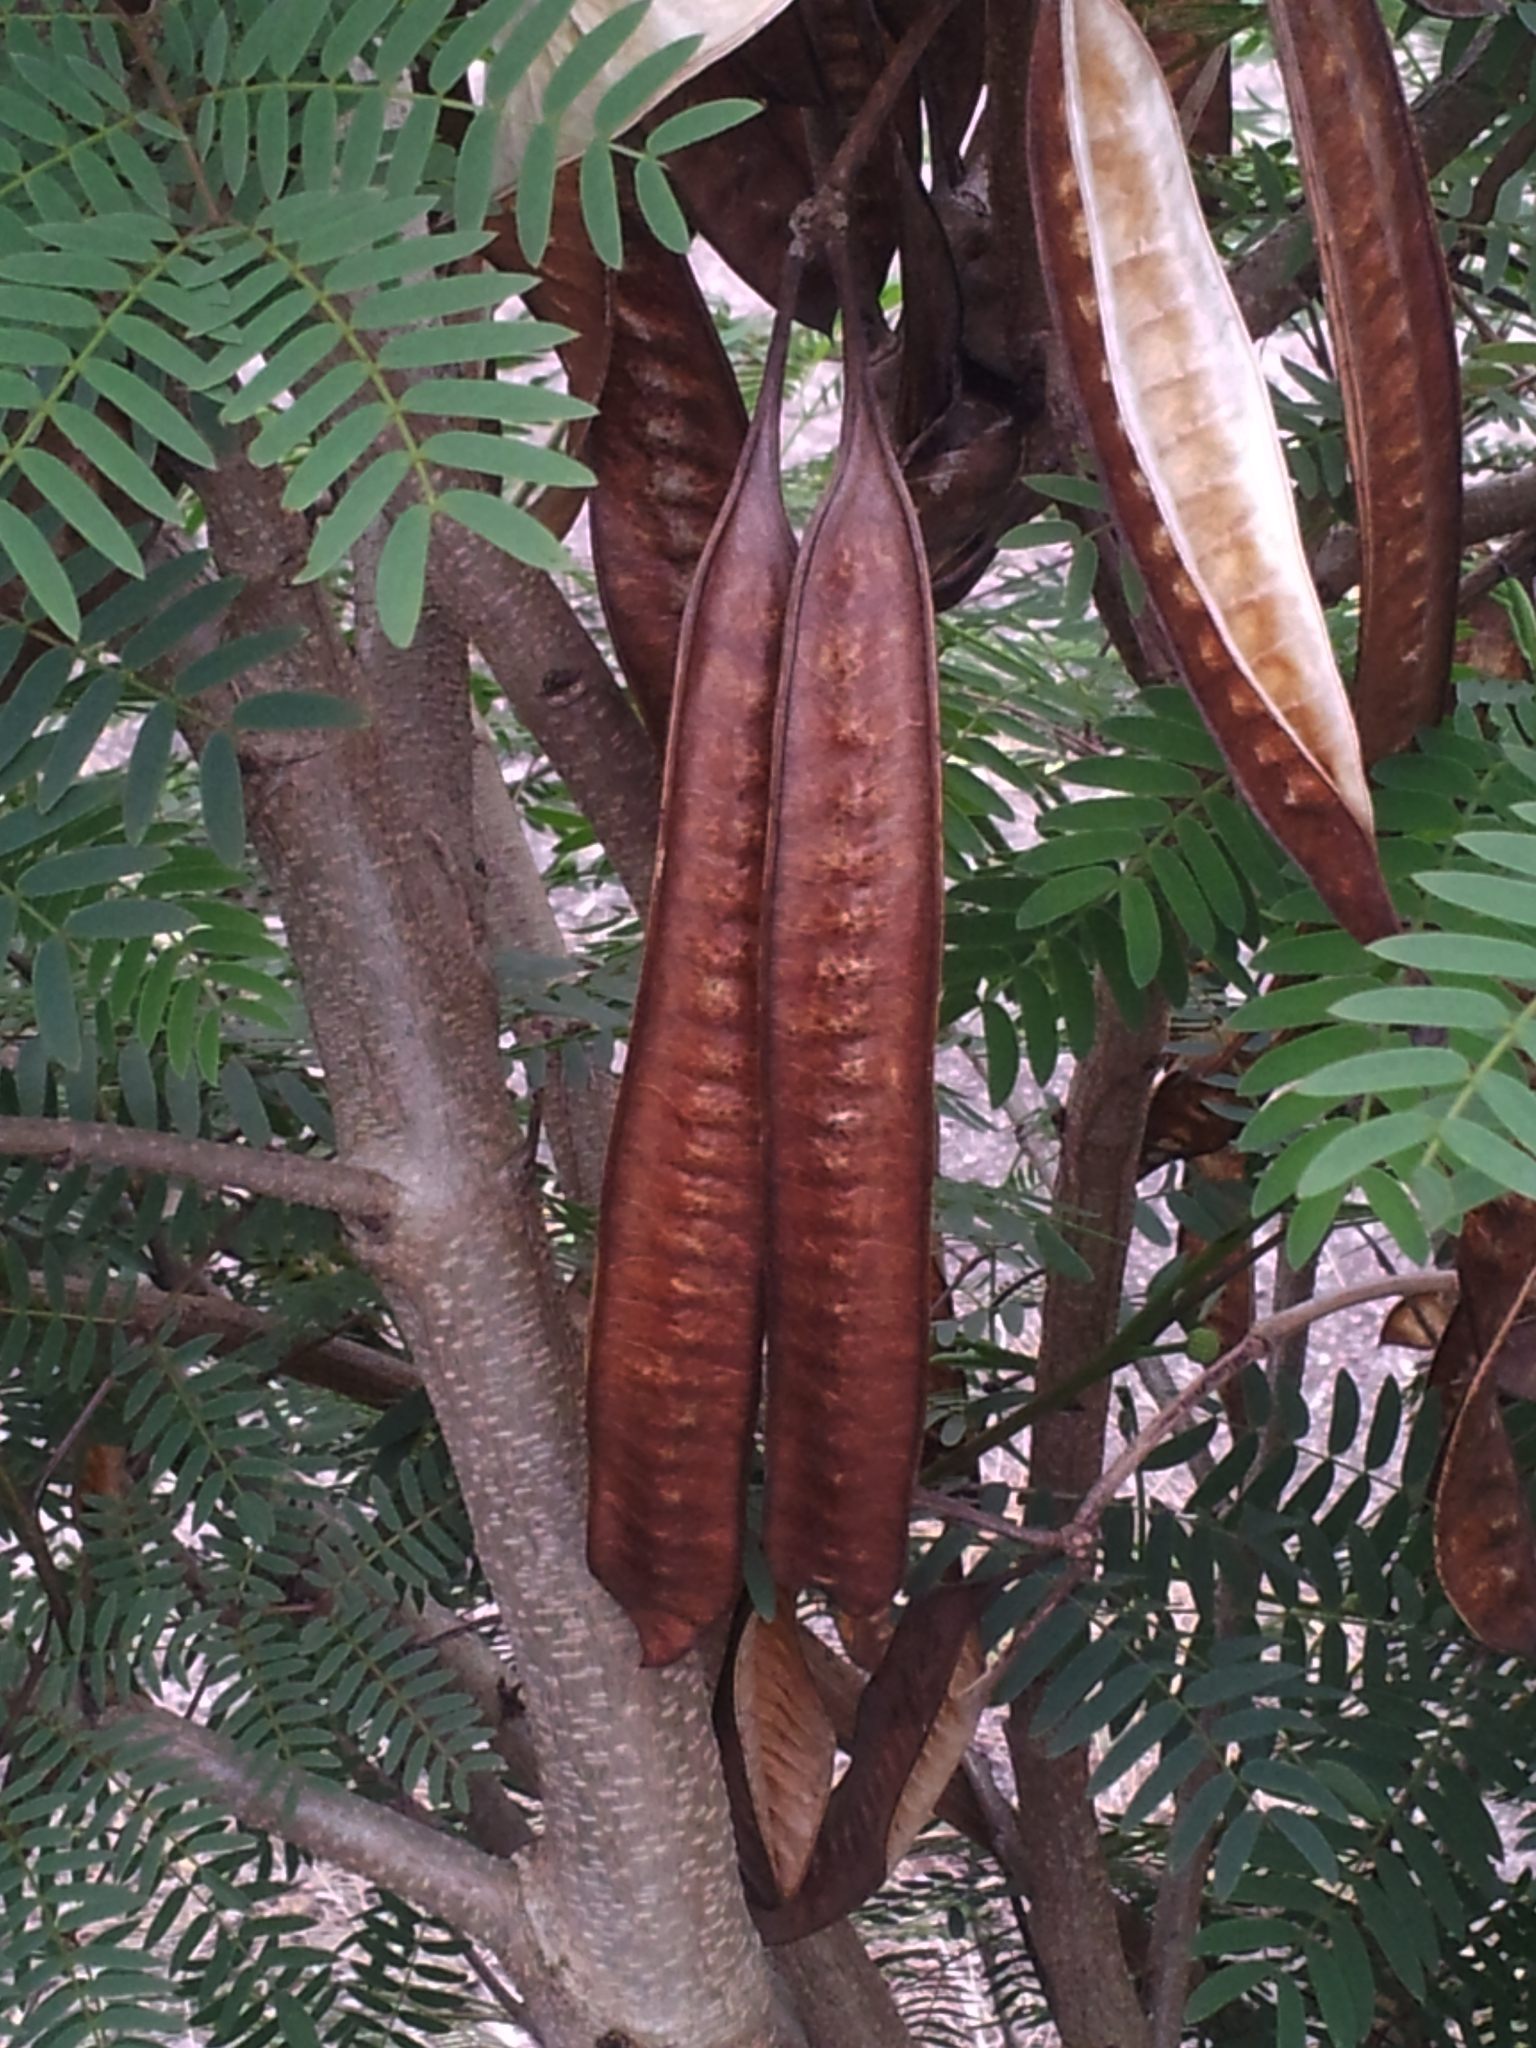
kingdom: Plantae
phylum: Tracheophyta
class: Magnoliopsida
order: Fabales
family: Fabaceae
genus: Leucaena
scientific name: Leucaena leucocephala
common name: White leadtree
